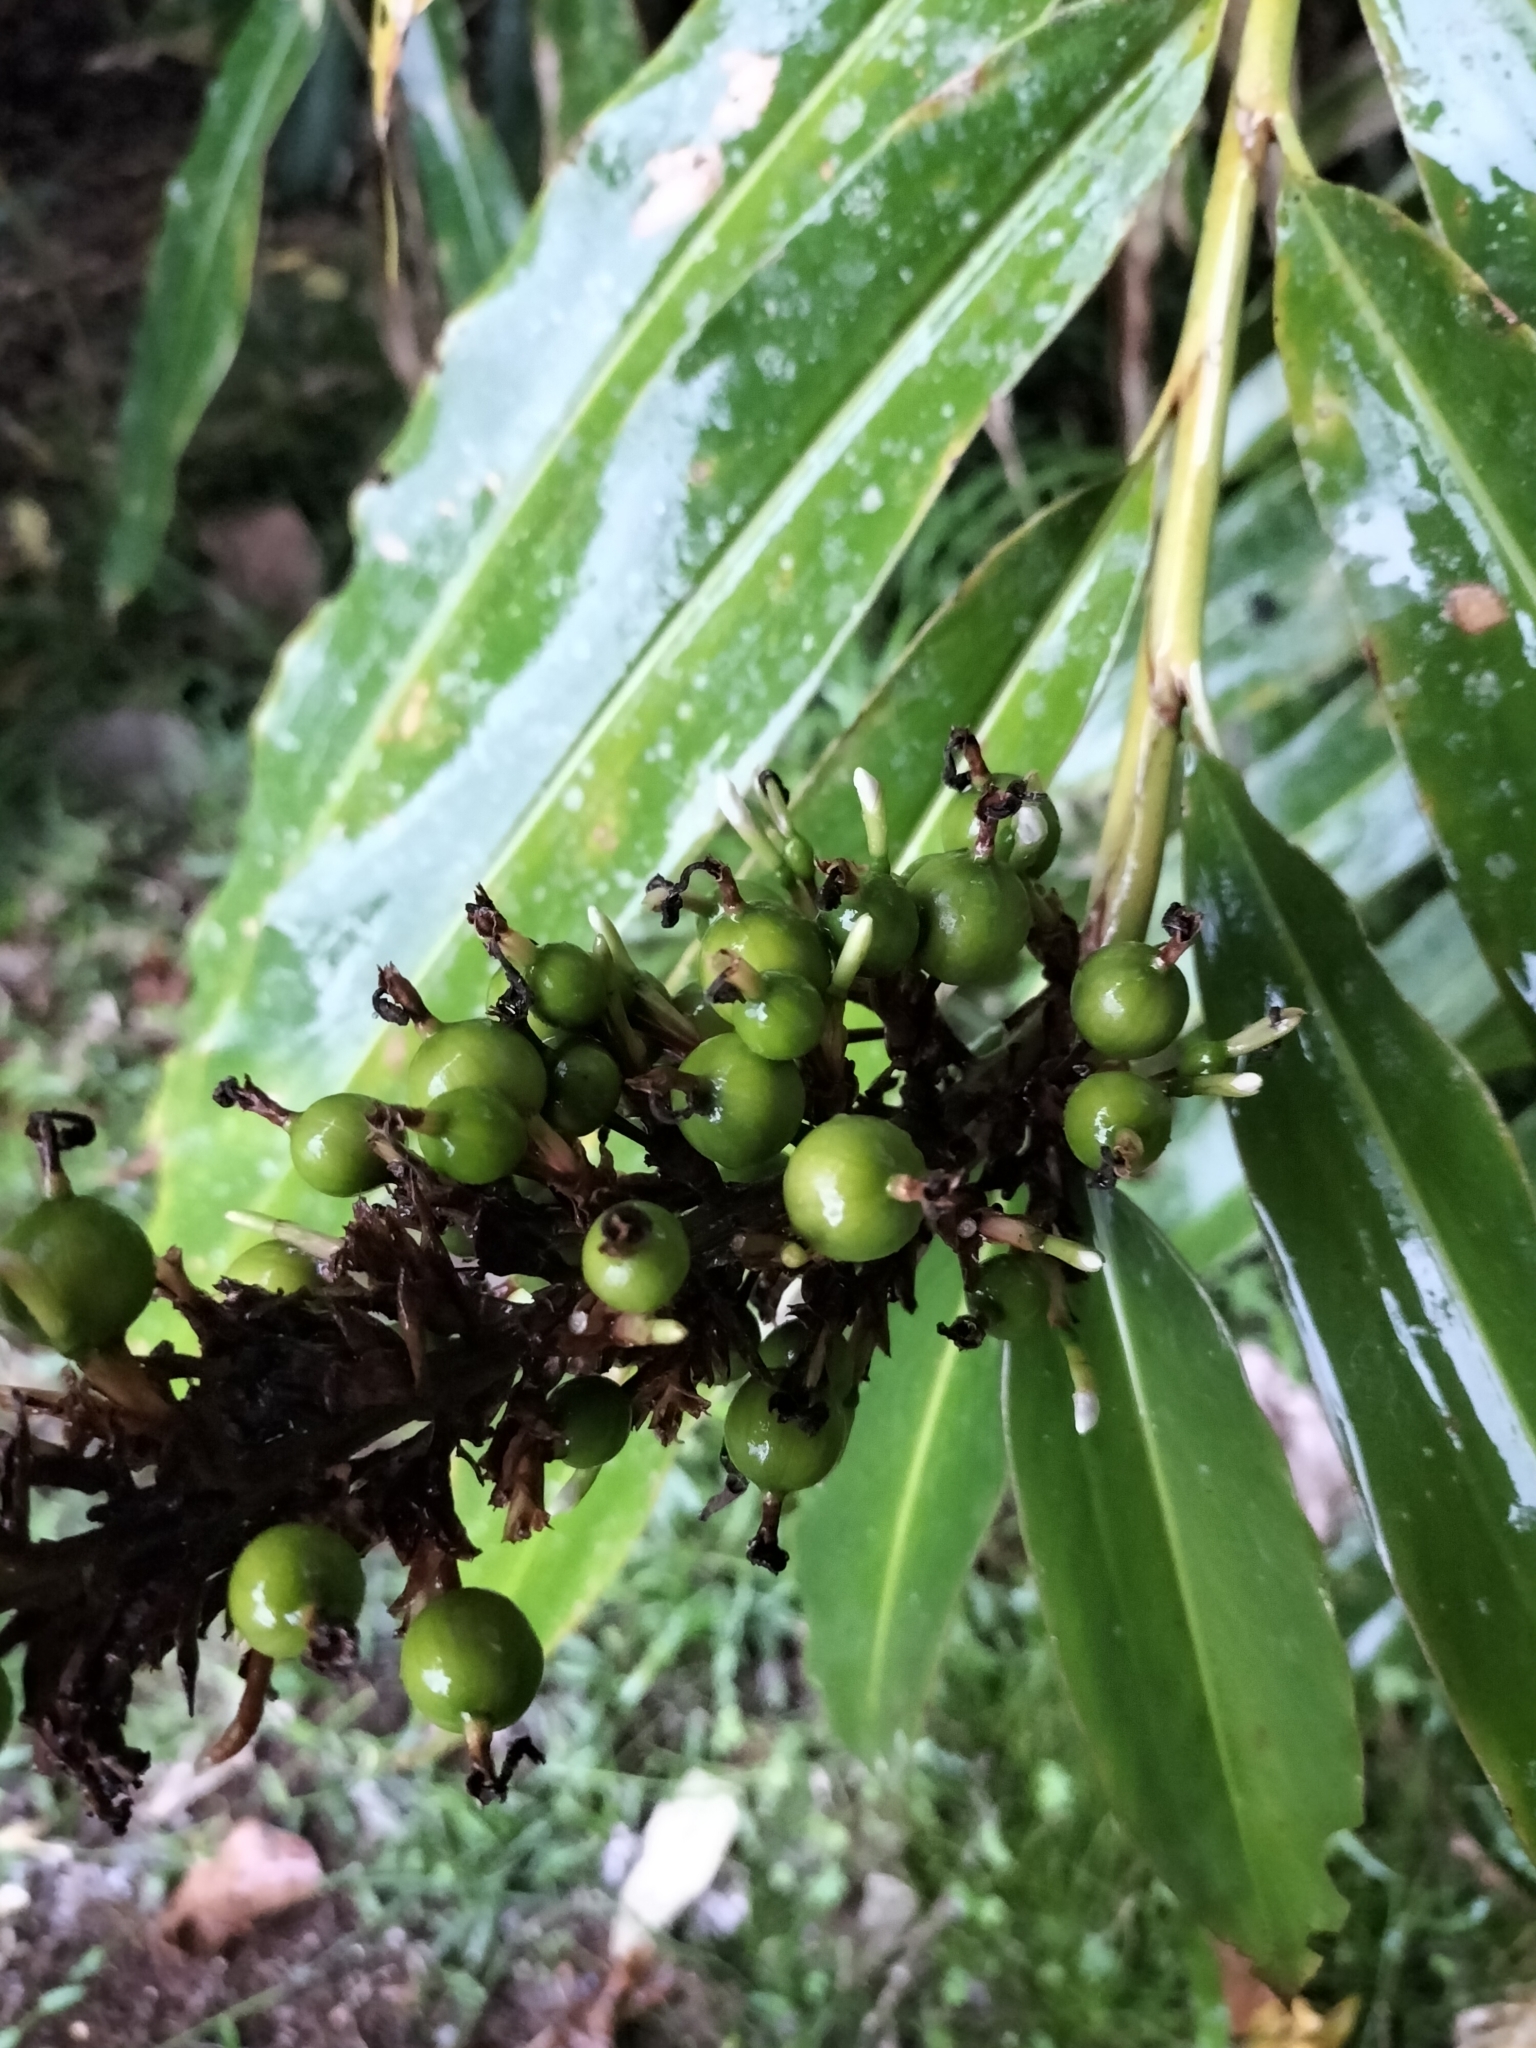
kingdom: Plantae
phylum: Tracheophyta
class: Liliopsida
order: Zingiberales
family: Zingiberaceae
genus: Alpinia
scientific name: Alpinia caerulea
